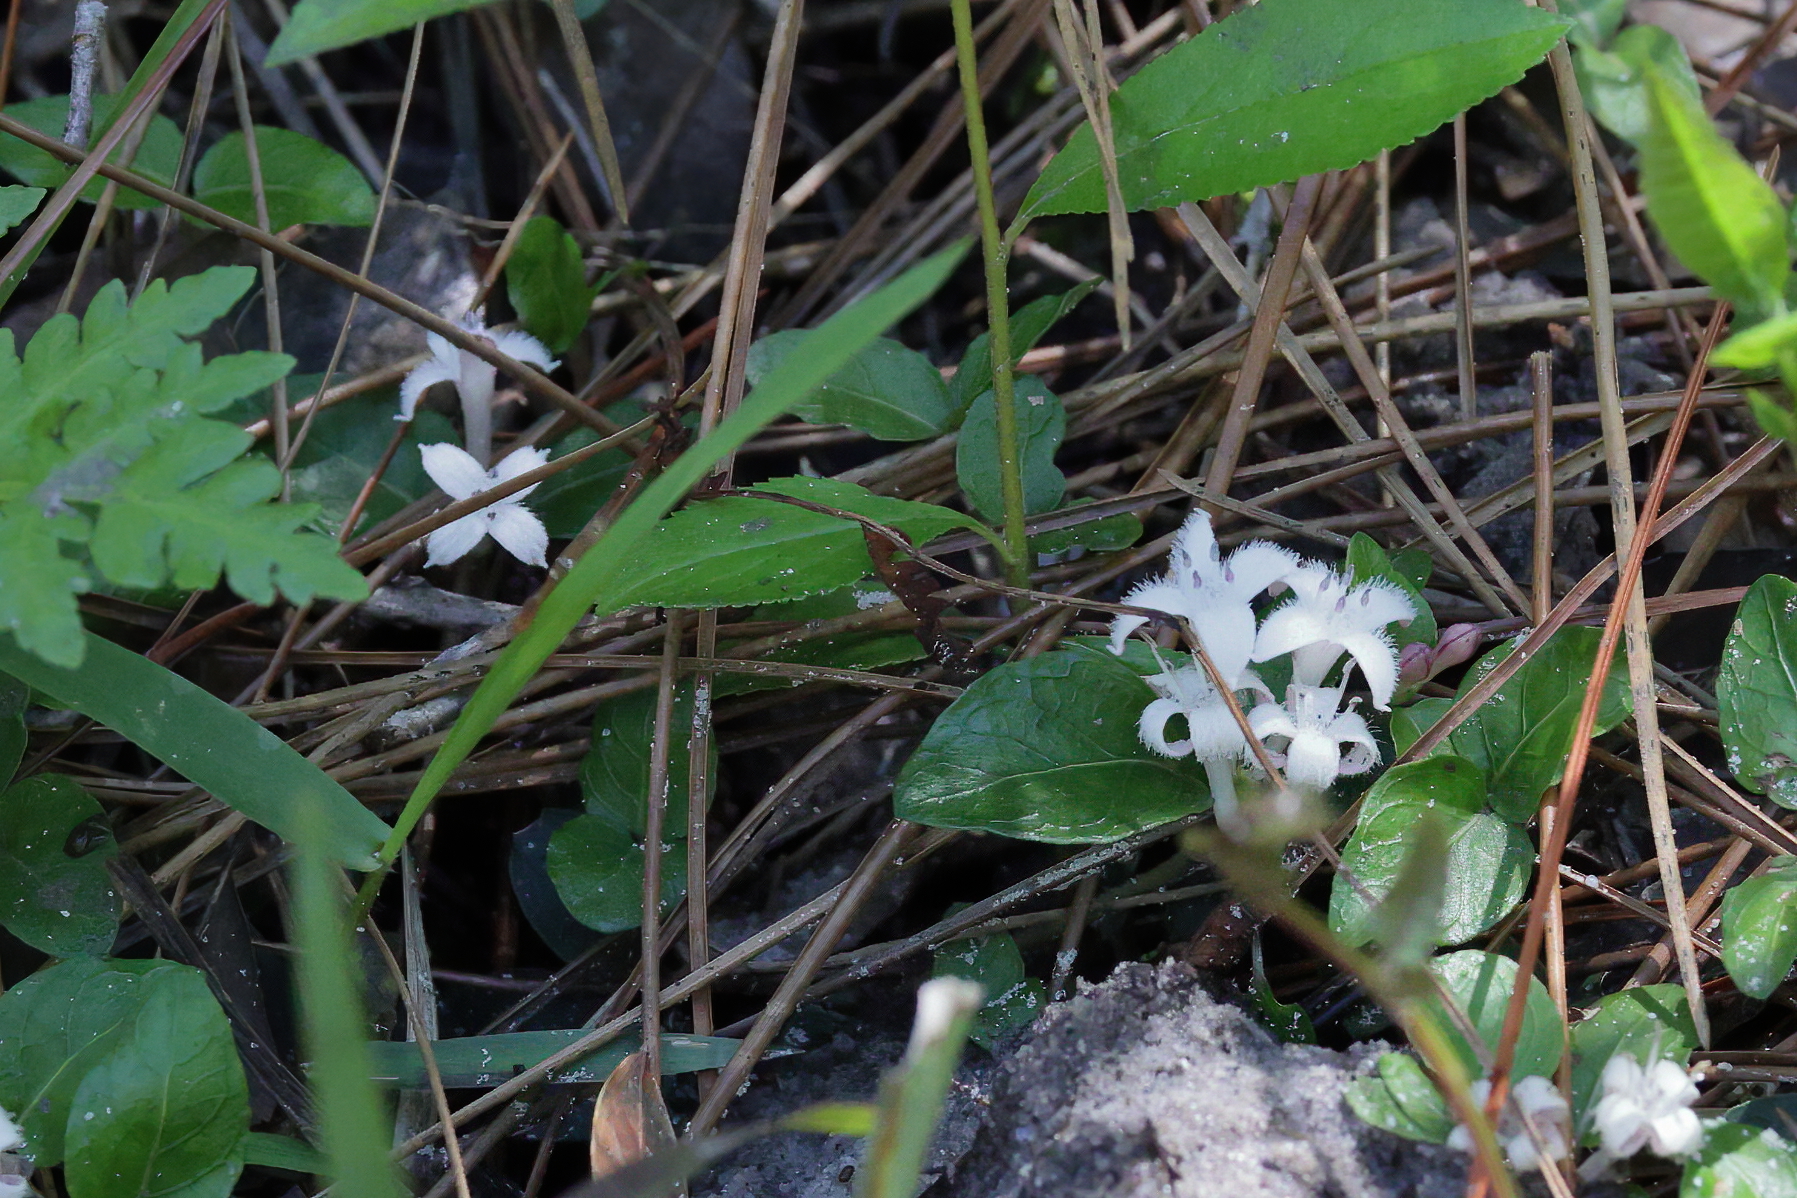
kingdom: Plantae
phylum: Tracheophyta
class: Magnoliopsida
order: Gentianales
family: Rubiaceae
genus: Mitchella
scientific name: Mitchella repens
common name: Partridge-berry
